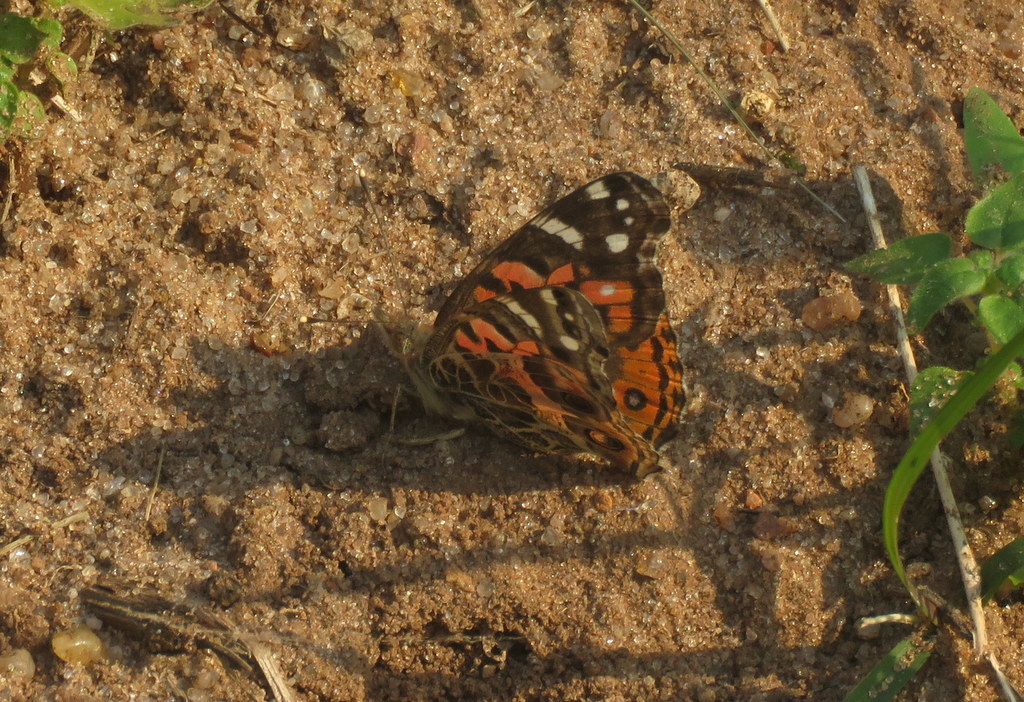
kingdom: Animalia
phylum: Arthropoda
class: Insecta
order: Lepidoptera
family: Nymphalidae
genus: Vanessa
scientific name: Vanessa braziliensis
